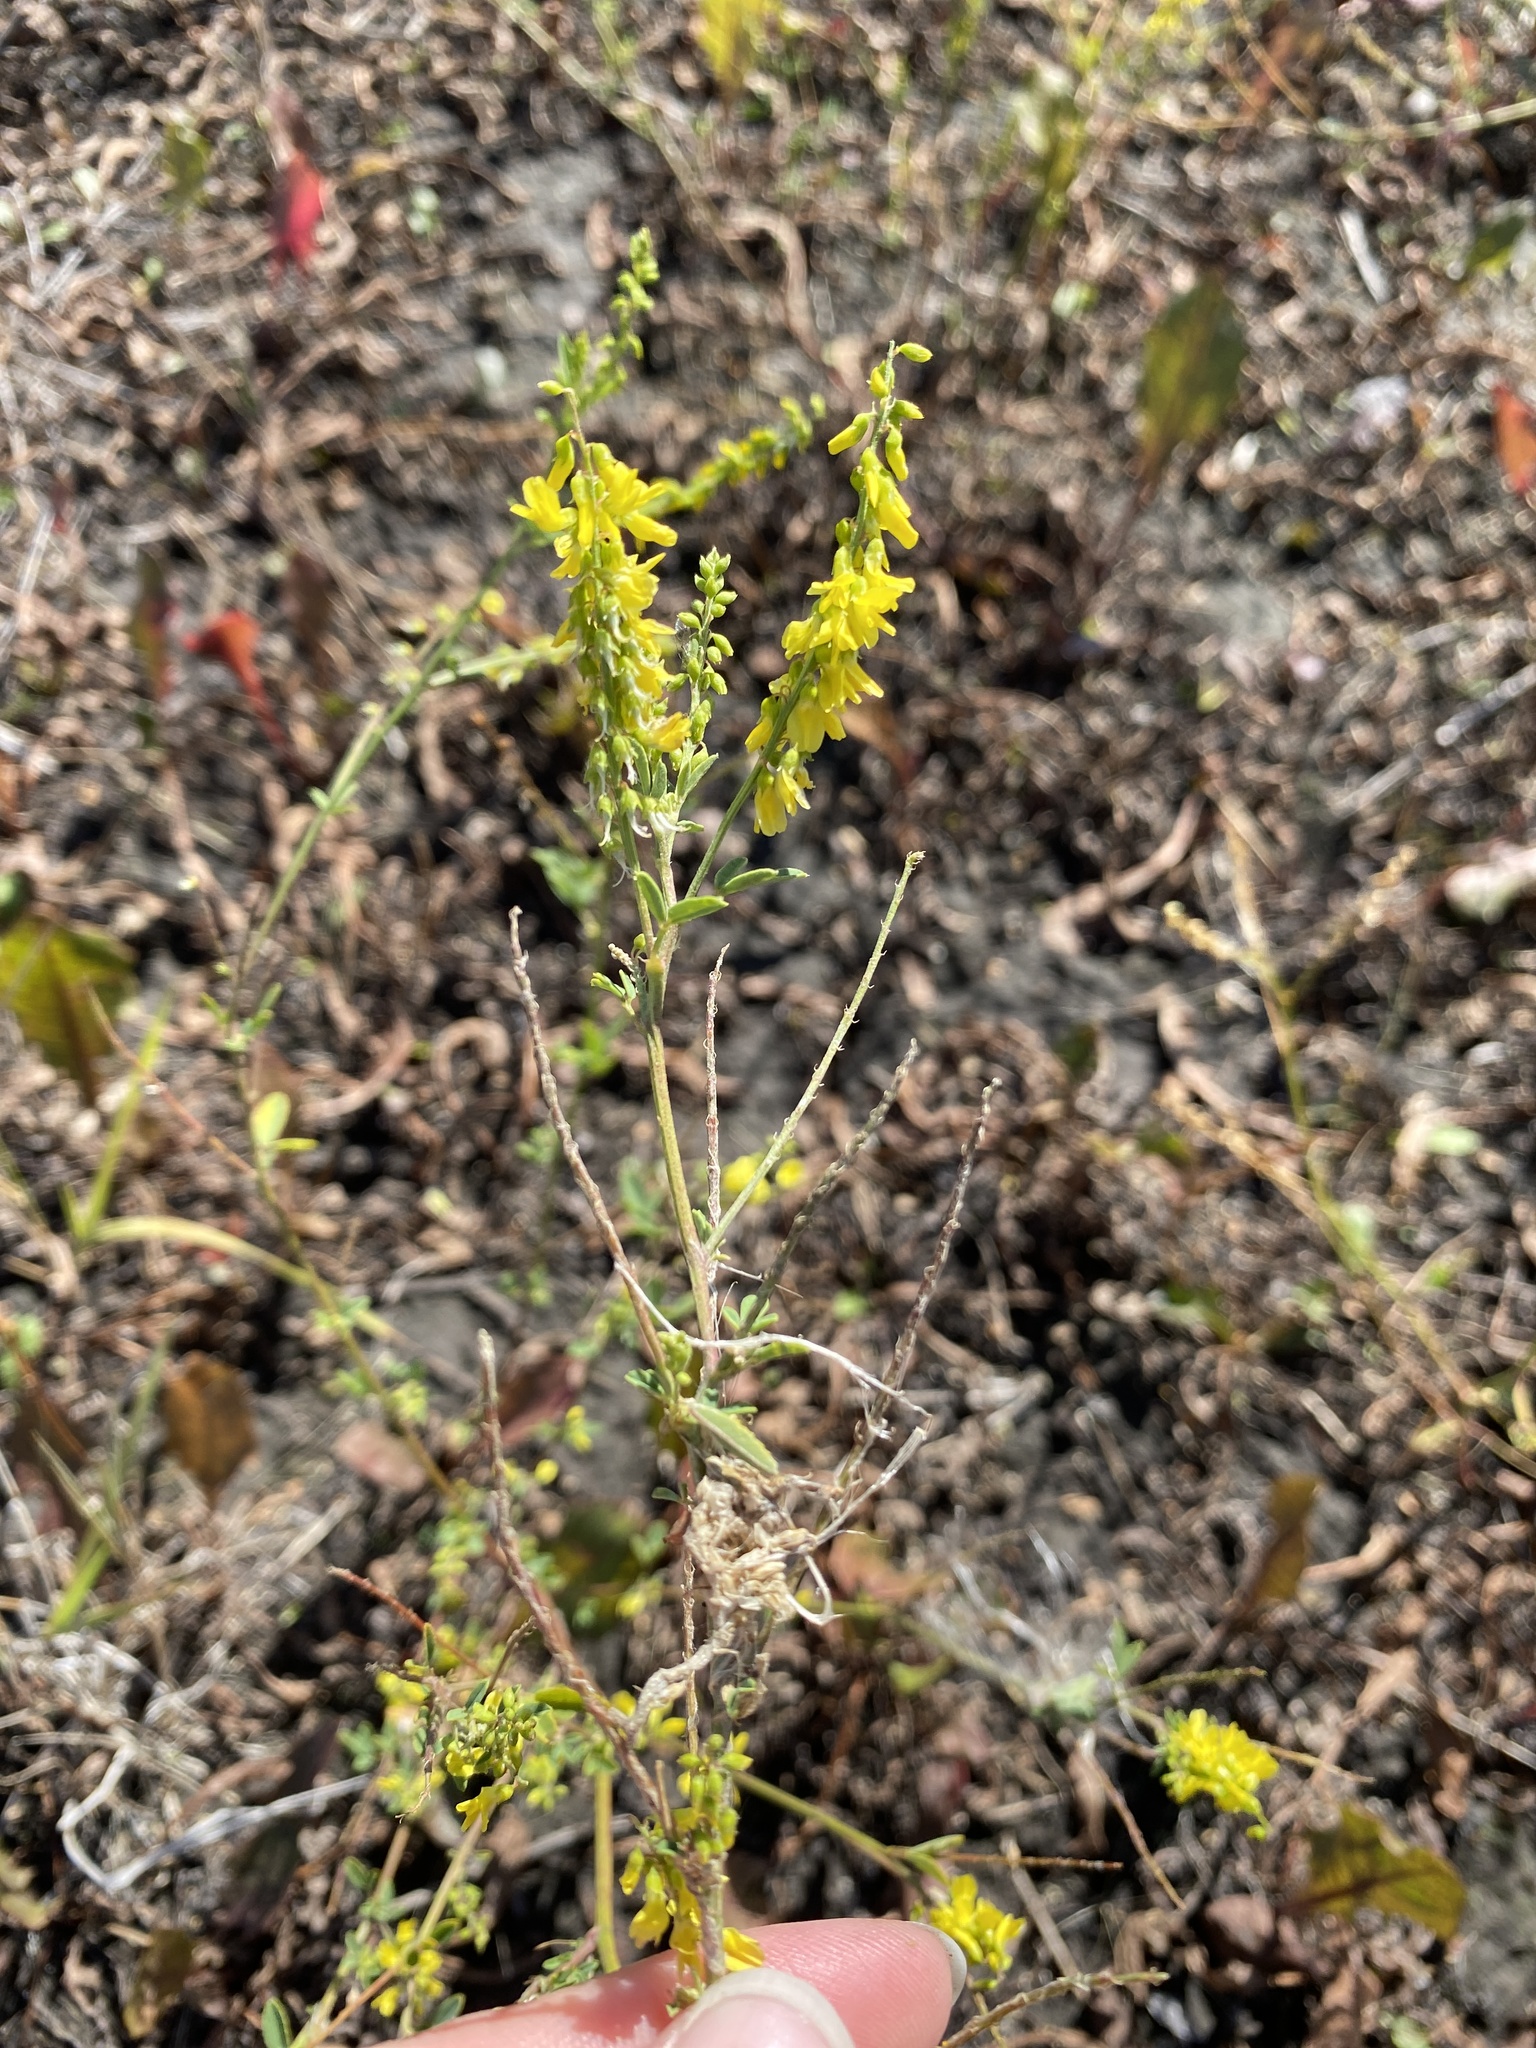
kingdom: Plantae
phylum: Tracheophyta
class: Magnoliopsida
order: Fabales
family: Fabaceae
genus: Melilotus
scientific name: Melilotus officinalis
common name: Sweetclover
